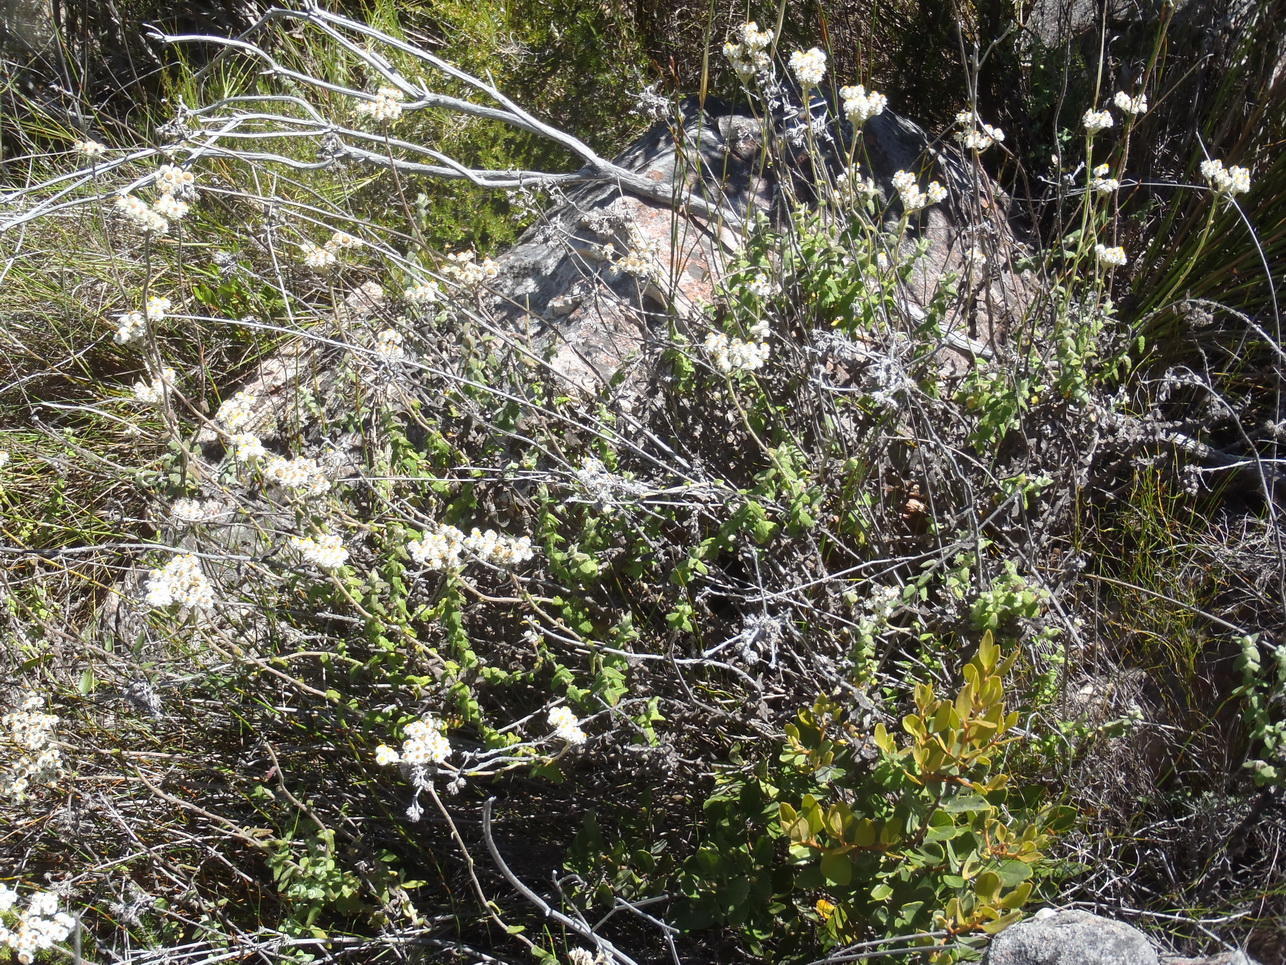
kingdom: Plantae
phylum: Tracheophyta
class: Magnoliopsida
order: Asterales
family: Asteraceae
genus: Helichrysum
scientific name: Helichrysum felinum
